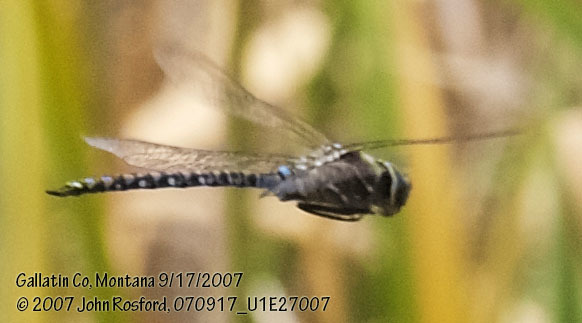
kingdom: Animalia
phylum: Arthropoda
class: Insecta
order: Odonata
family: Aeshnidae
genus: Aeshna
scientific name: Aeshna interrupta
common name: Variable darner
